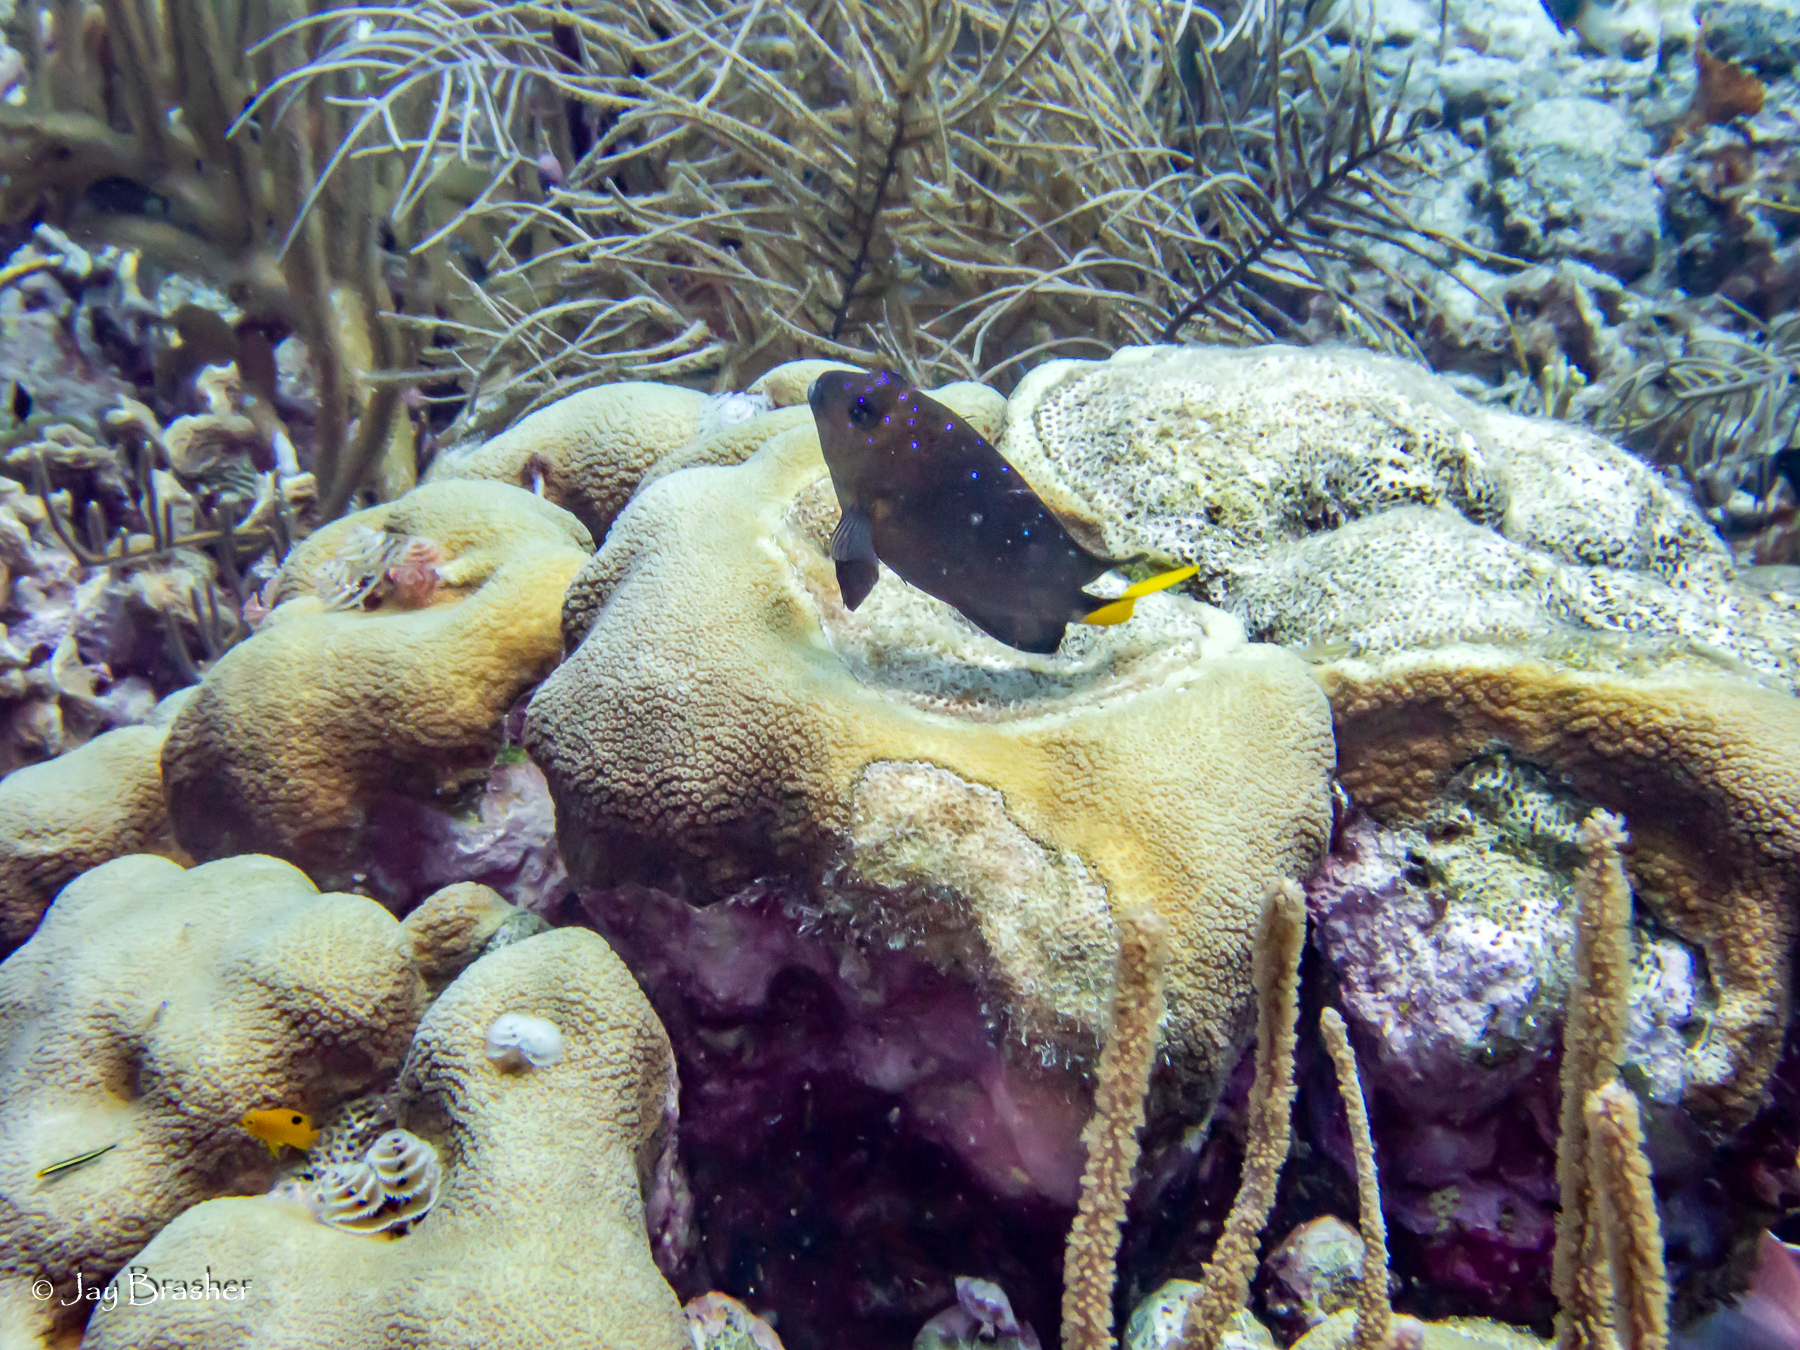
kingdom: Animalia
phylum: Chordata
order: Perciformes
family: Pomacentridae
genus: Microspathodon
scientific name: Microspathodon chrysurus
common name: Yellowtail damselfish
